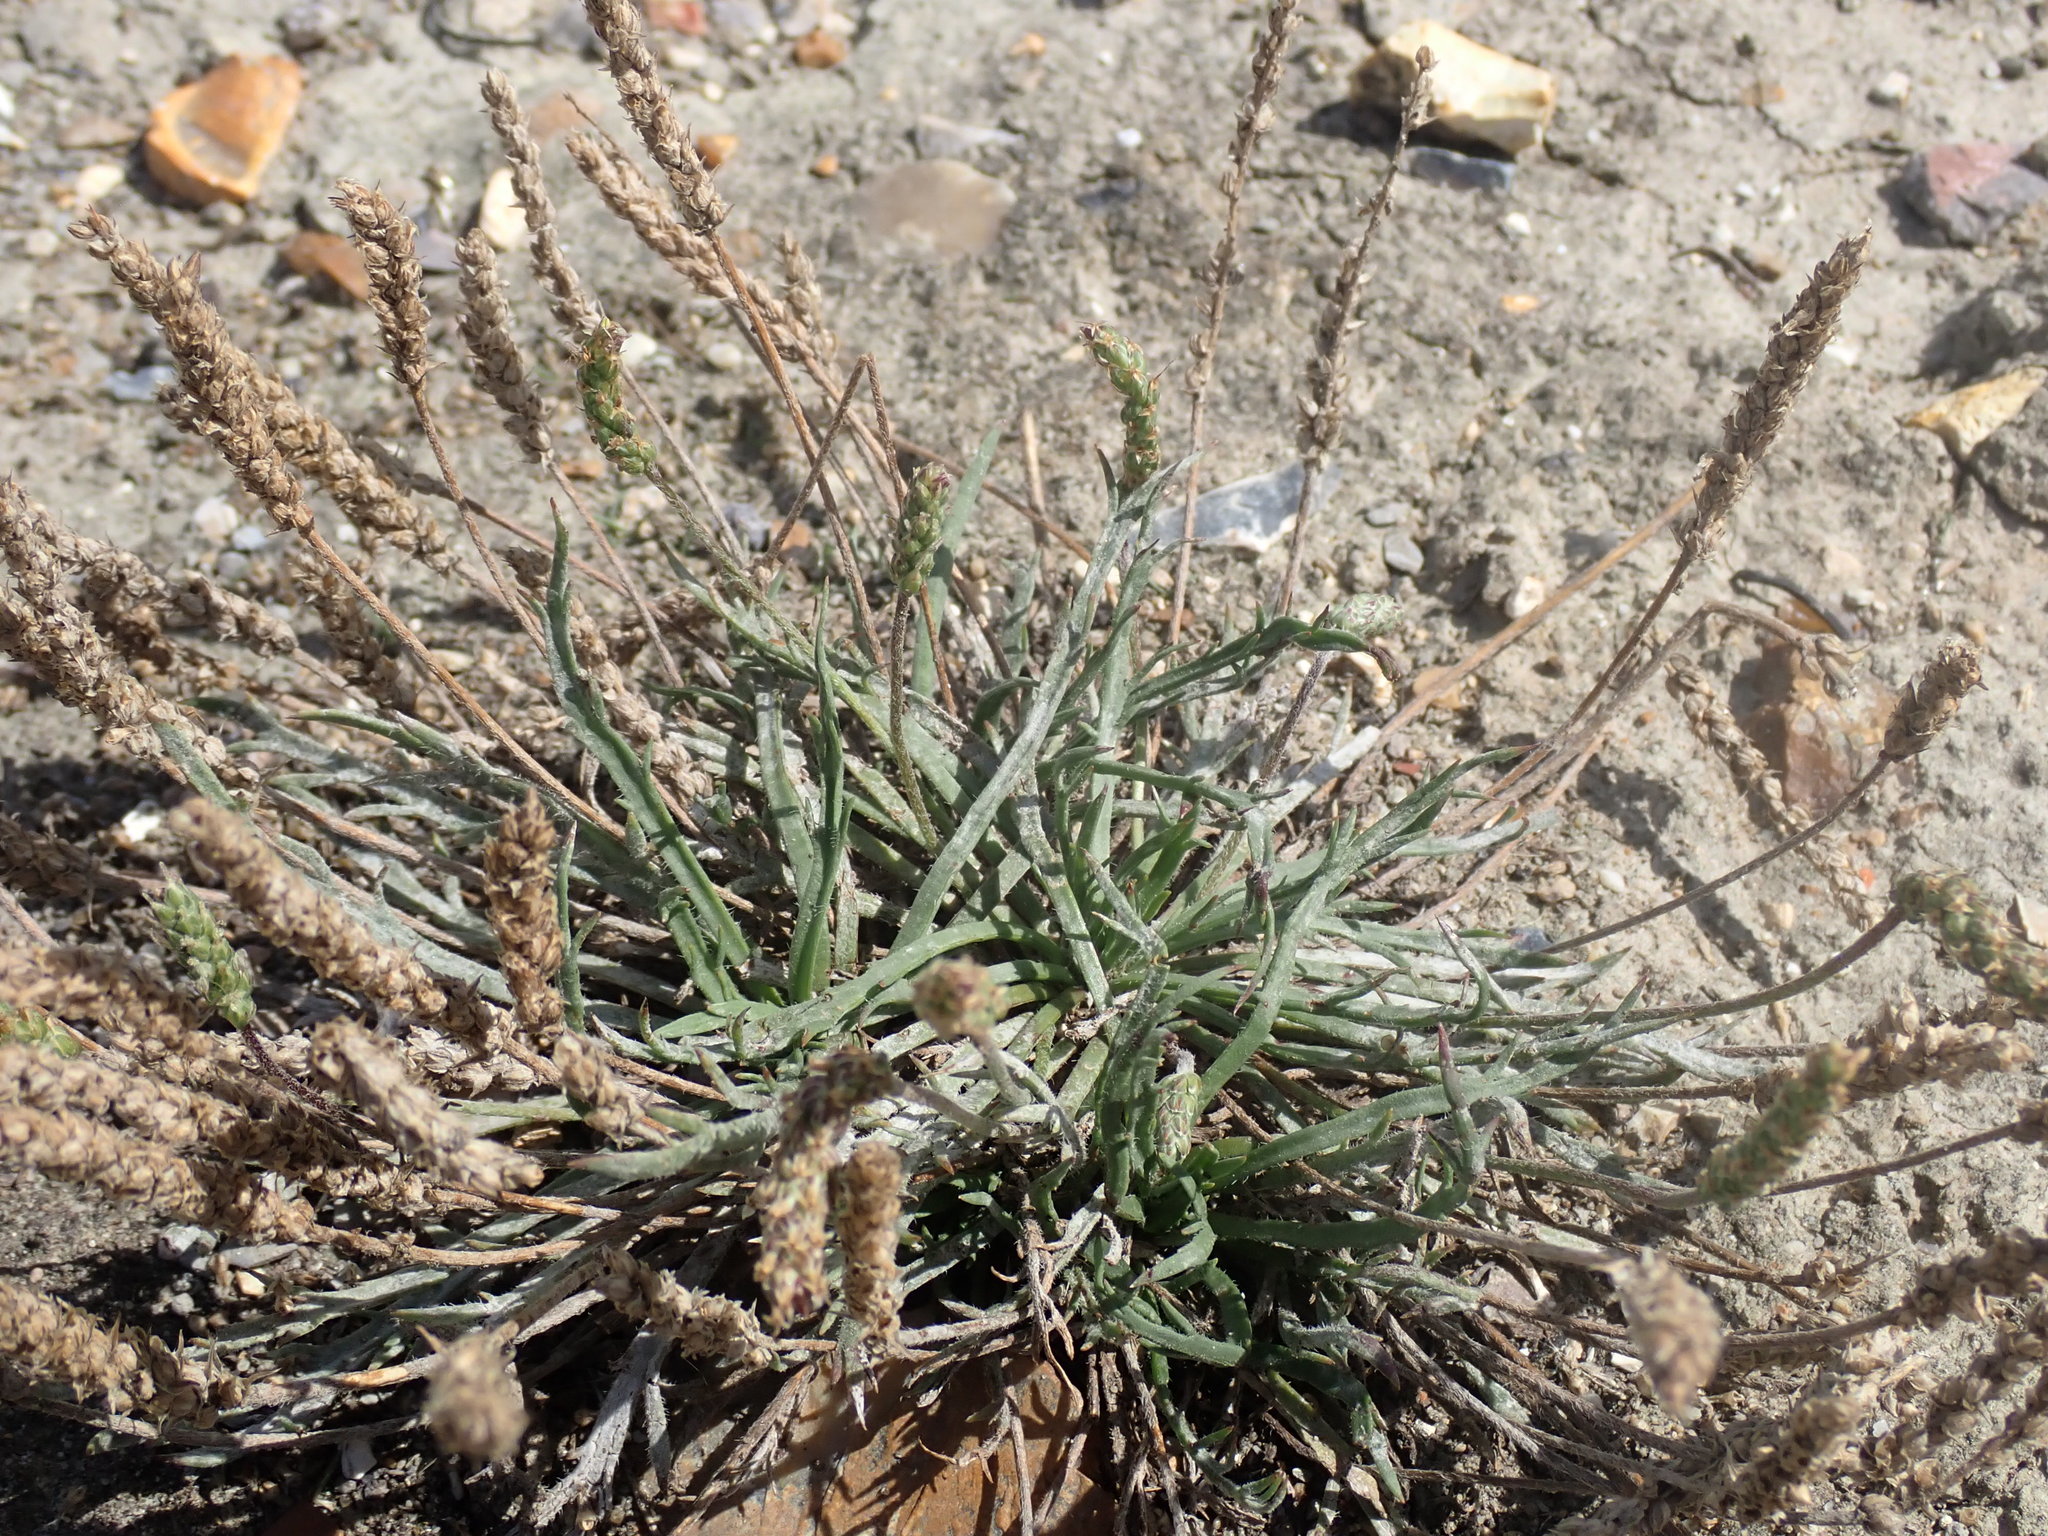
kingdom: Plantae
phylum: Tracheophyta
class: Magnoliopsida
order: Lamiales
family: Plantaginaceae
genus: Plantago
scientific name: Plantago coronopus
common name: Buck's-horn plantain
